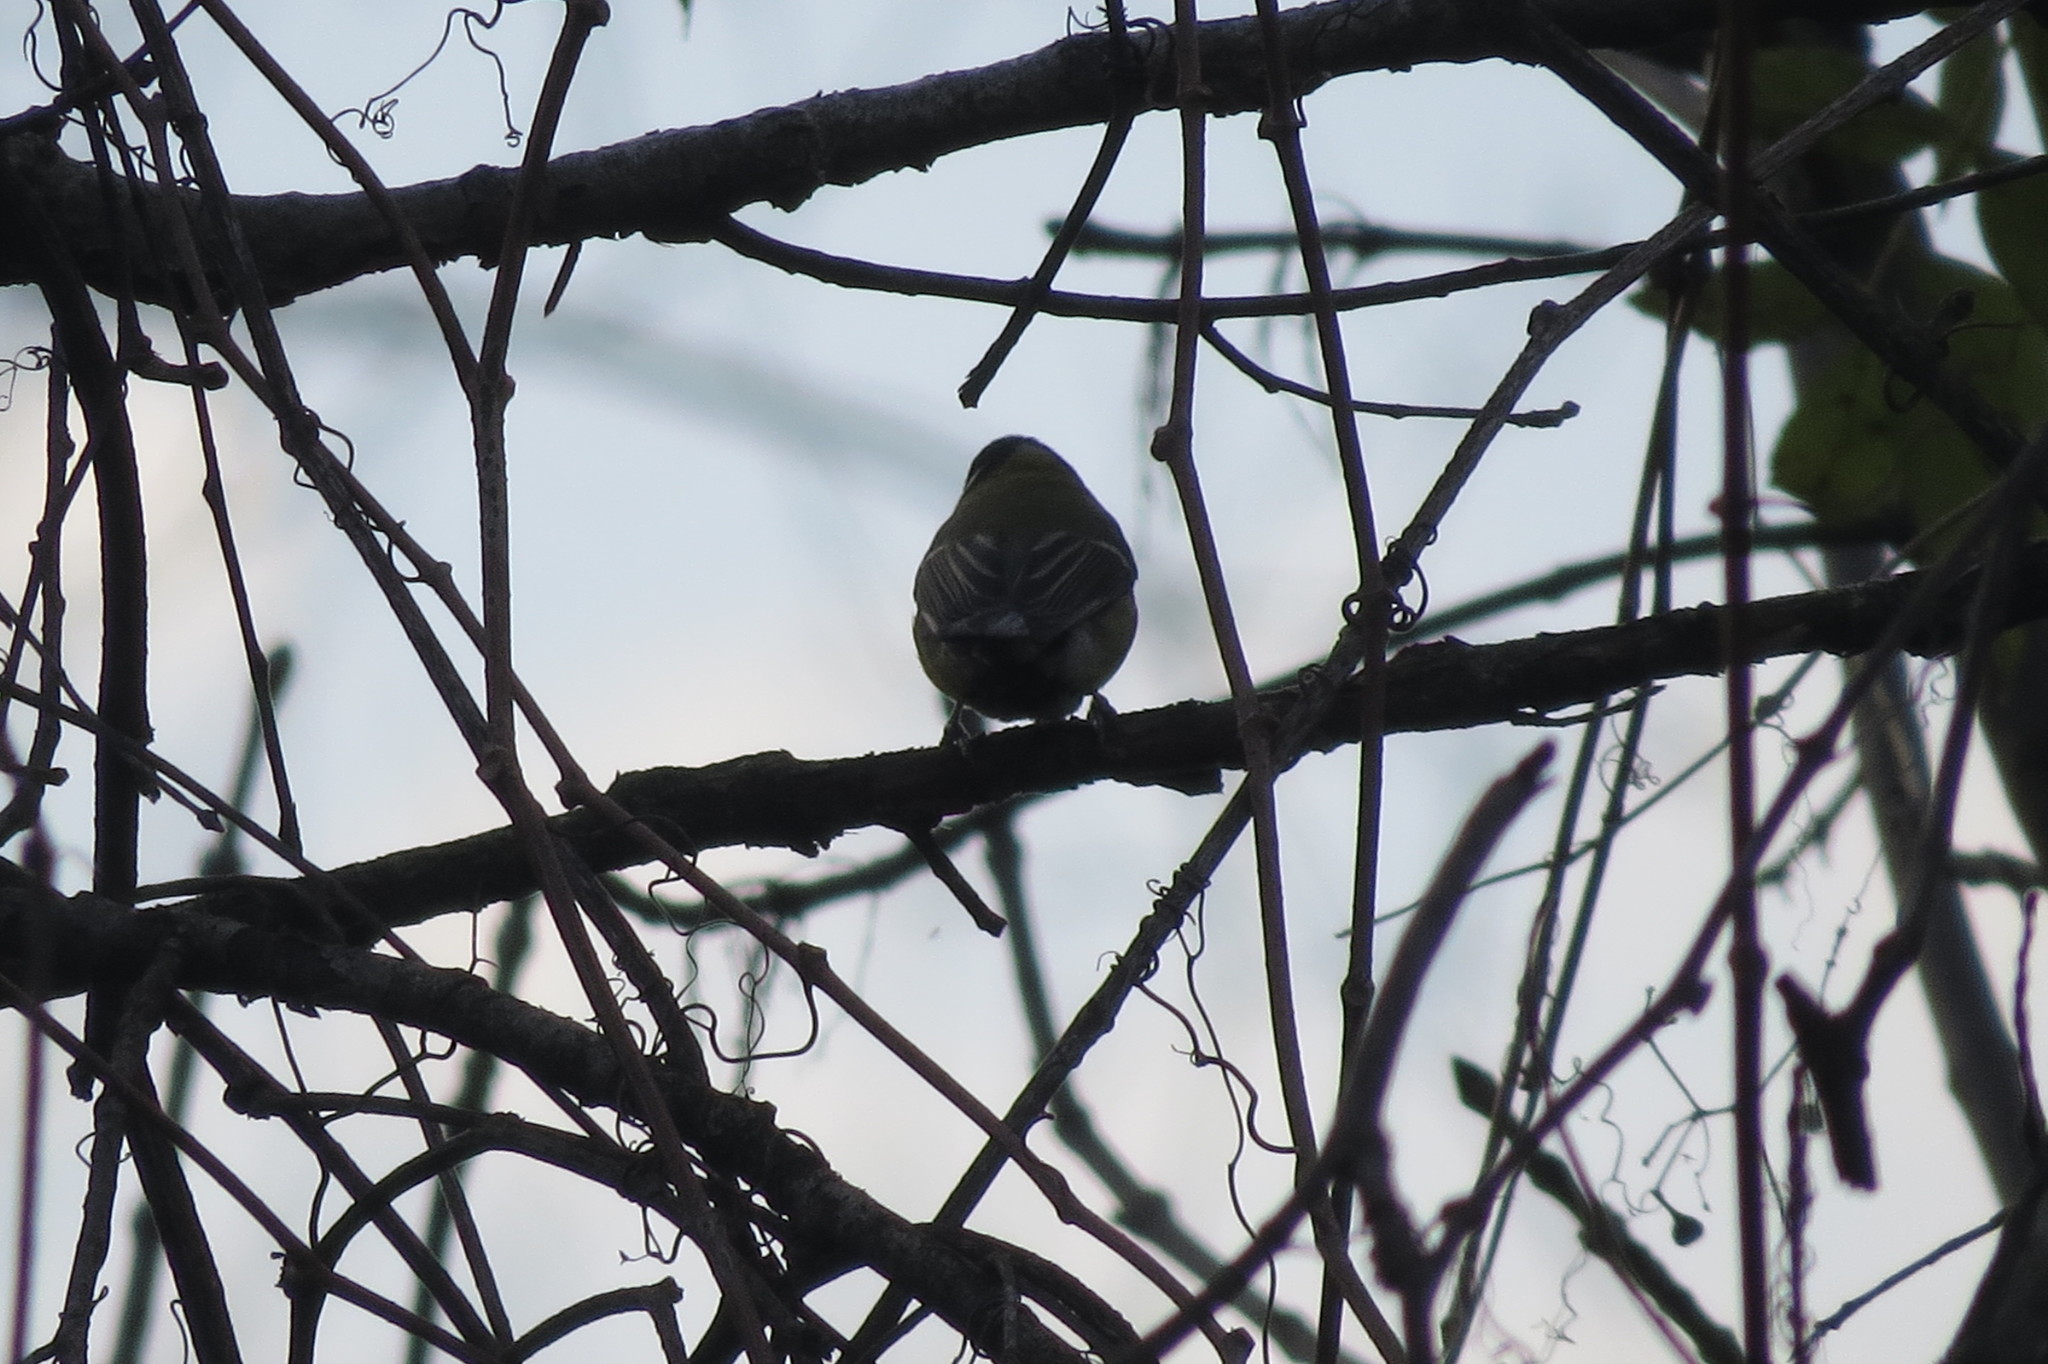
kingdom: Animalia
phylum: Chordata
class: Aves
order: Passeriformes
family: Paridae
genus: Parus
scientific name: Parus major
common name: Great tit
